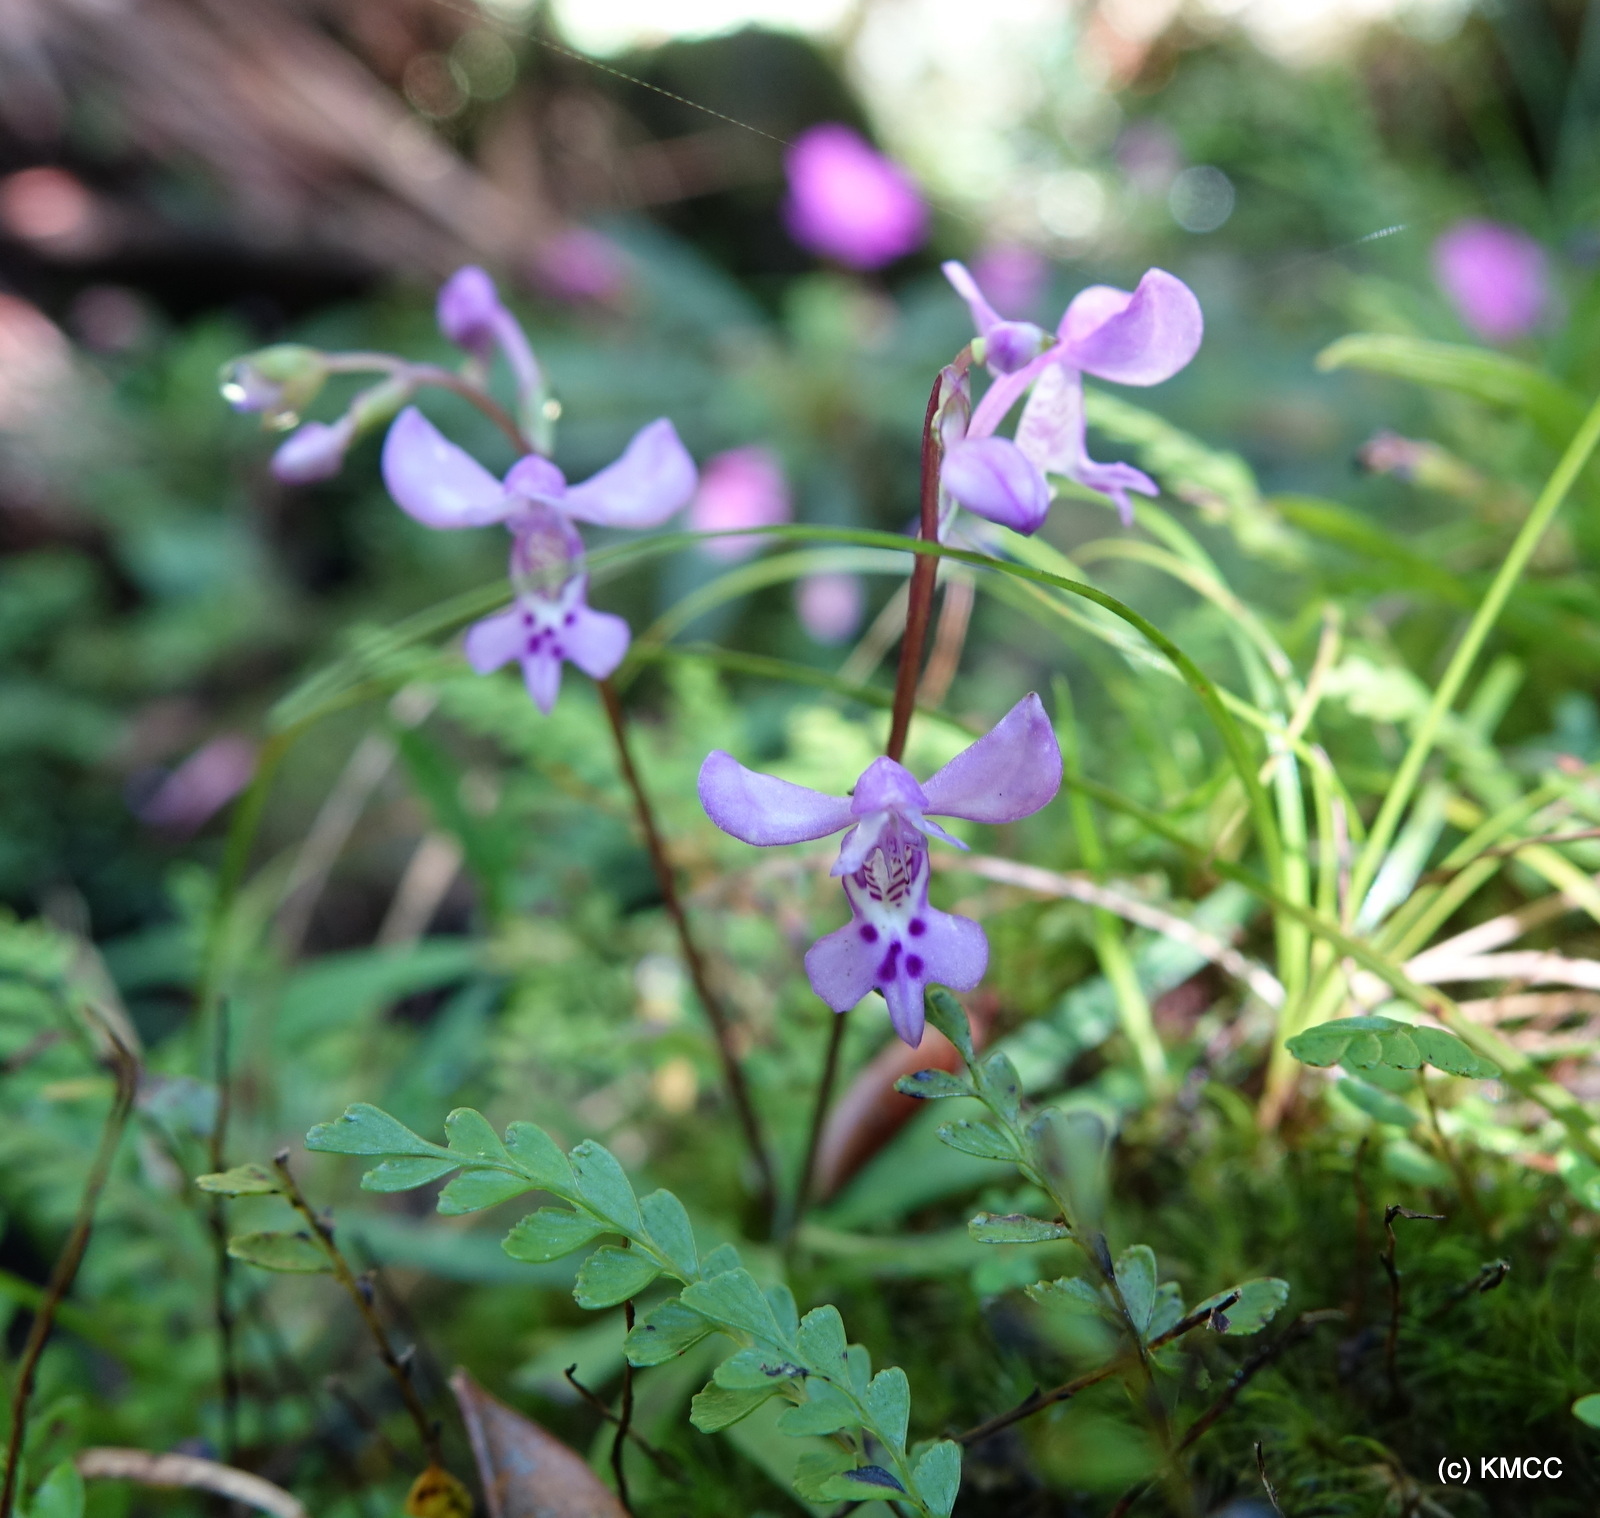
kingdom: Plantae
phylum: Tracheophyta
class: Liliopsida
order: Asparagales
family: Orchidaceae
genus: Cynorkis
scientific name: Cynorkis lilacina
